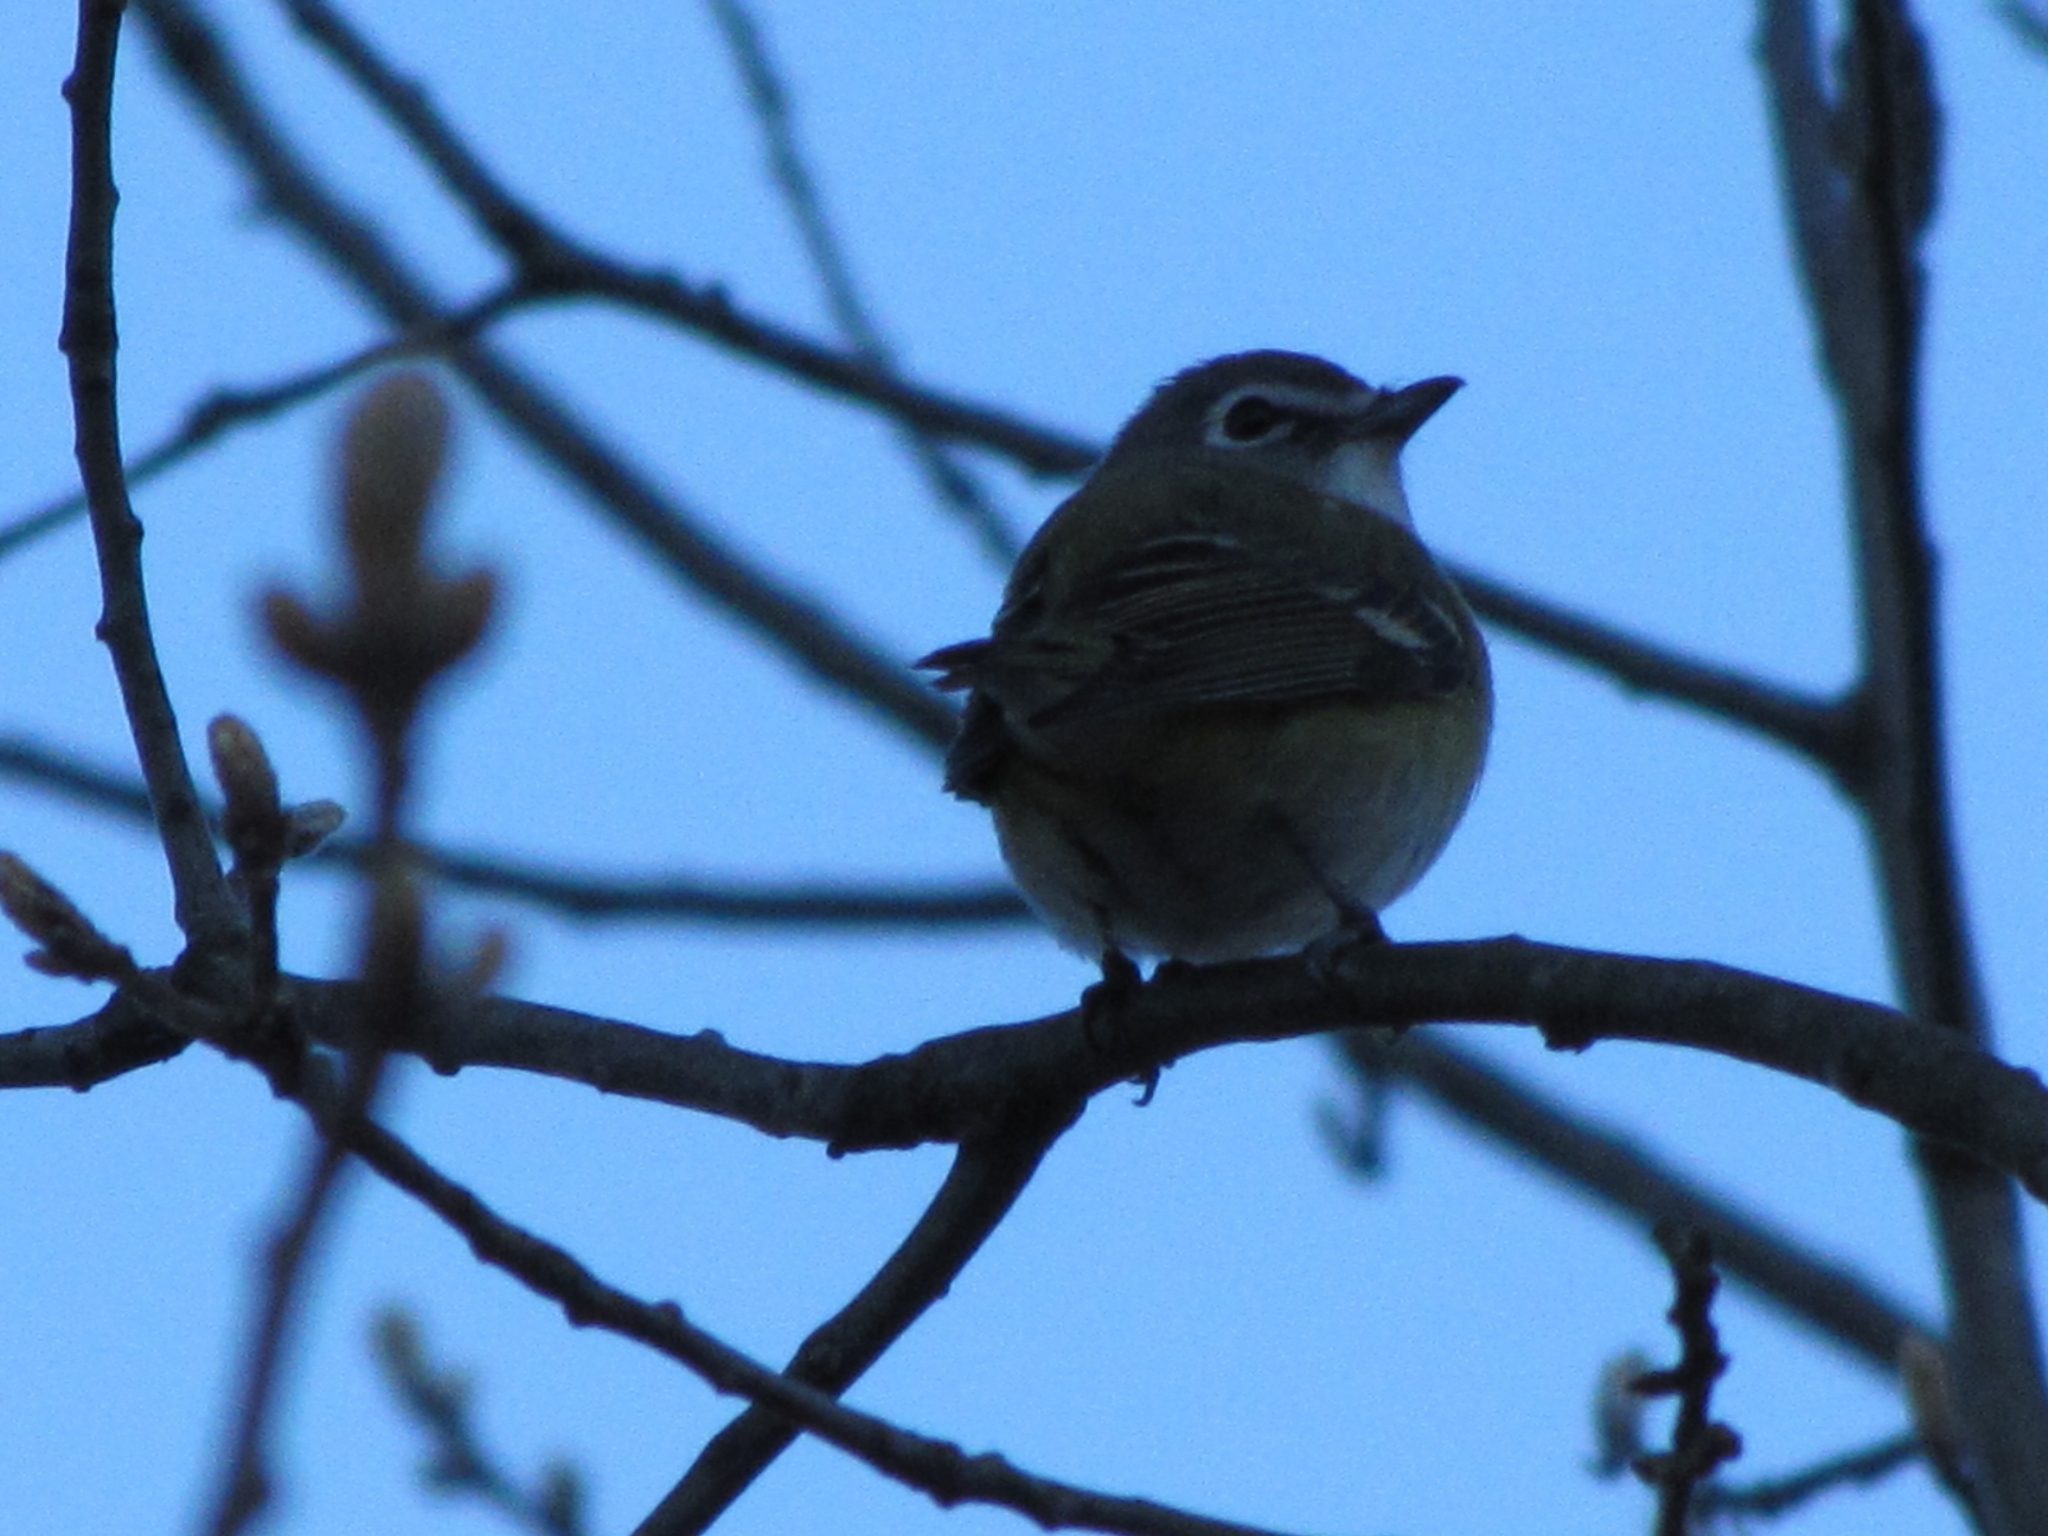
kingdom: Animalia
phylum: Chordata
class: Aves
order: Passeriformes
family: Vireonidae
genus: Vireo
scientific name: Vireo solitarius
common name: Blue-headed vireo
